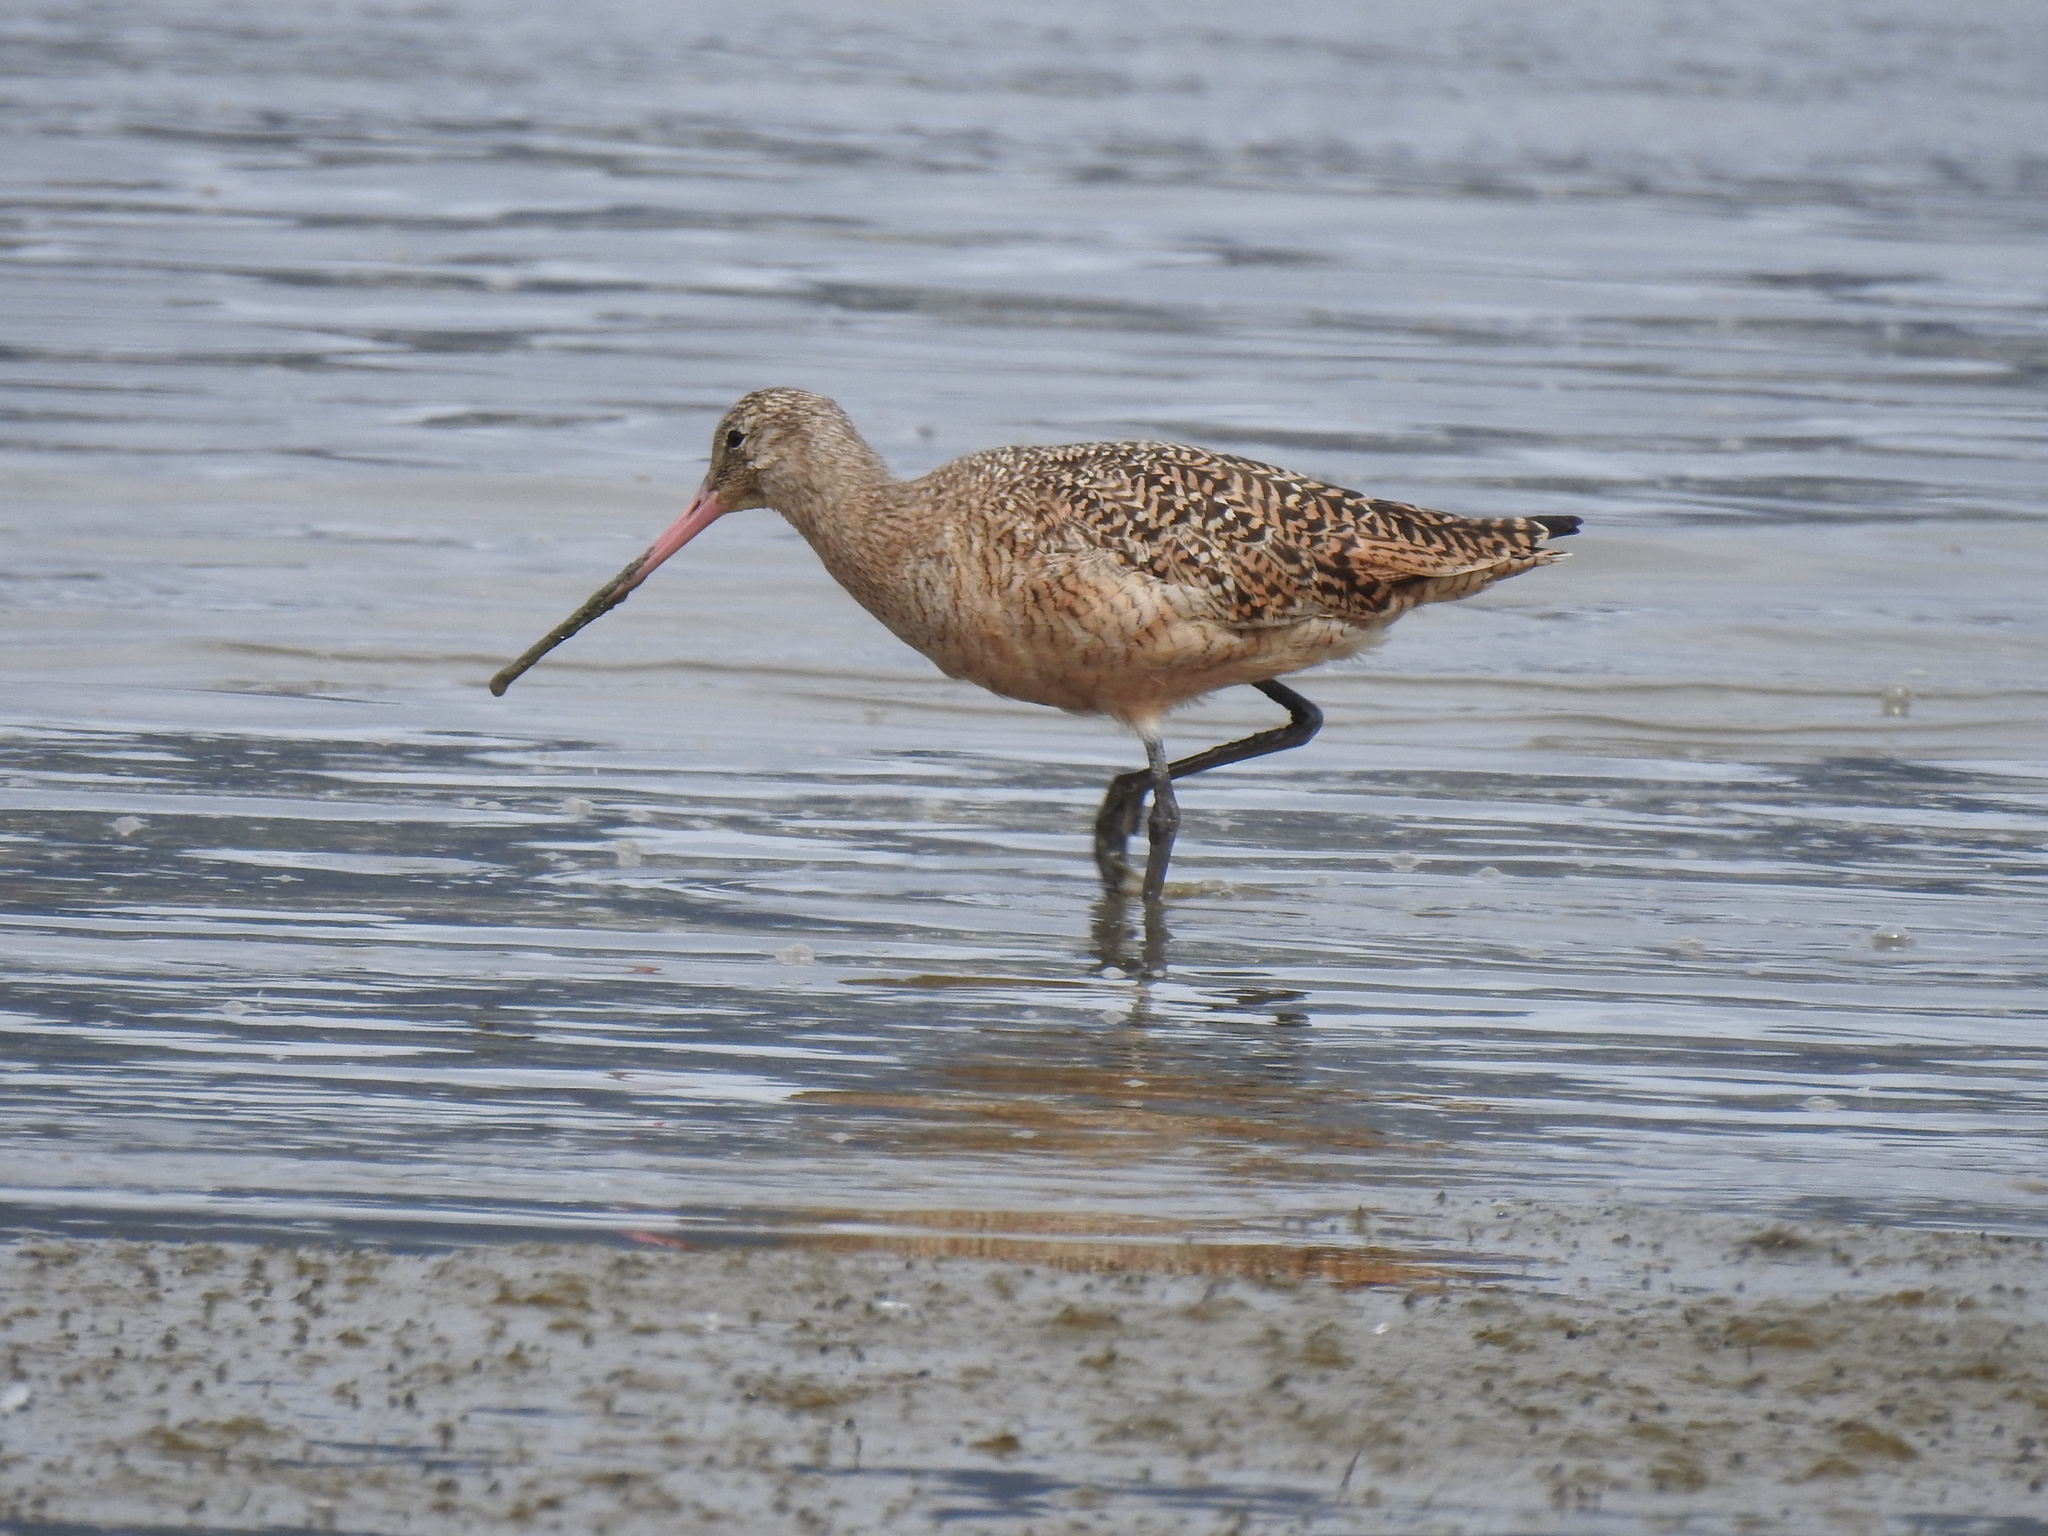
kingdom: Animalia
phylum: Chordata
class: Aves
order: Charadriiformes
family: Scolopacidae
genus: Limosa
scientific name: Limosa fedoa
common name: Marbled godwit
